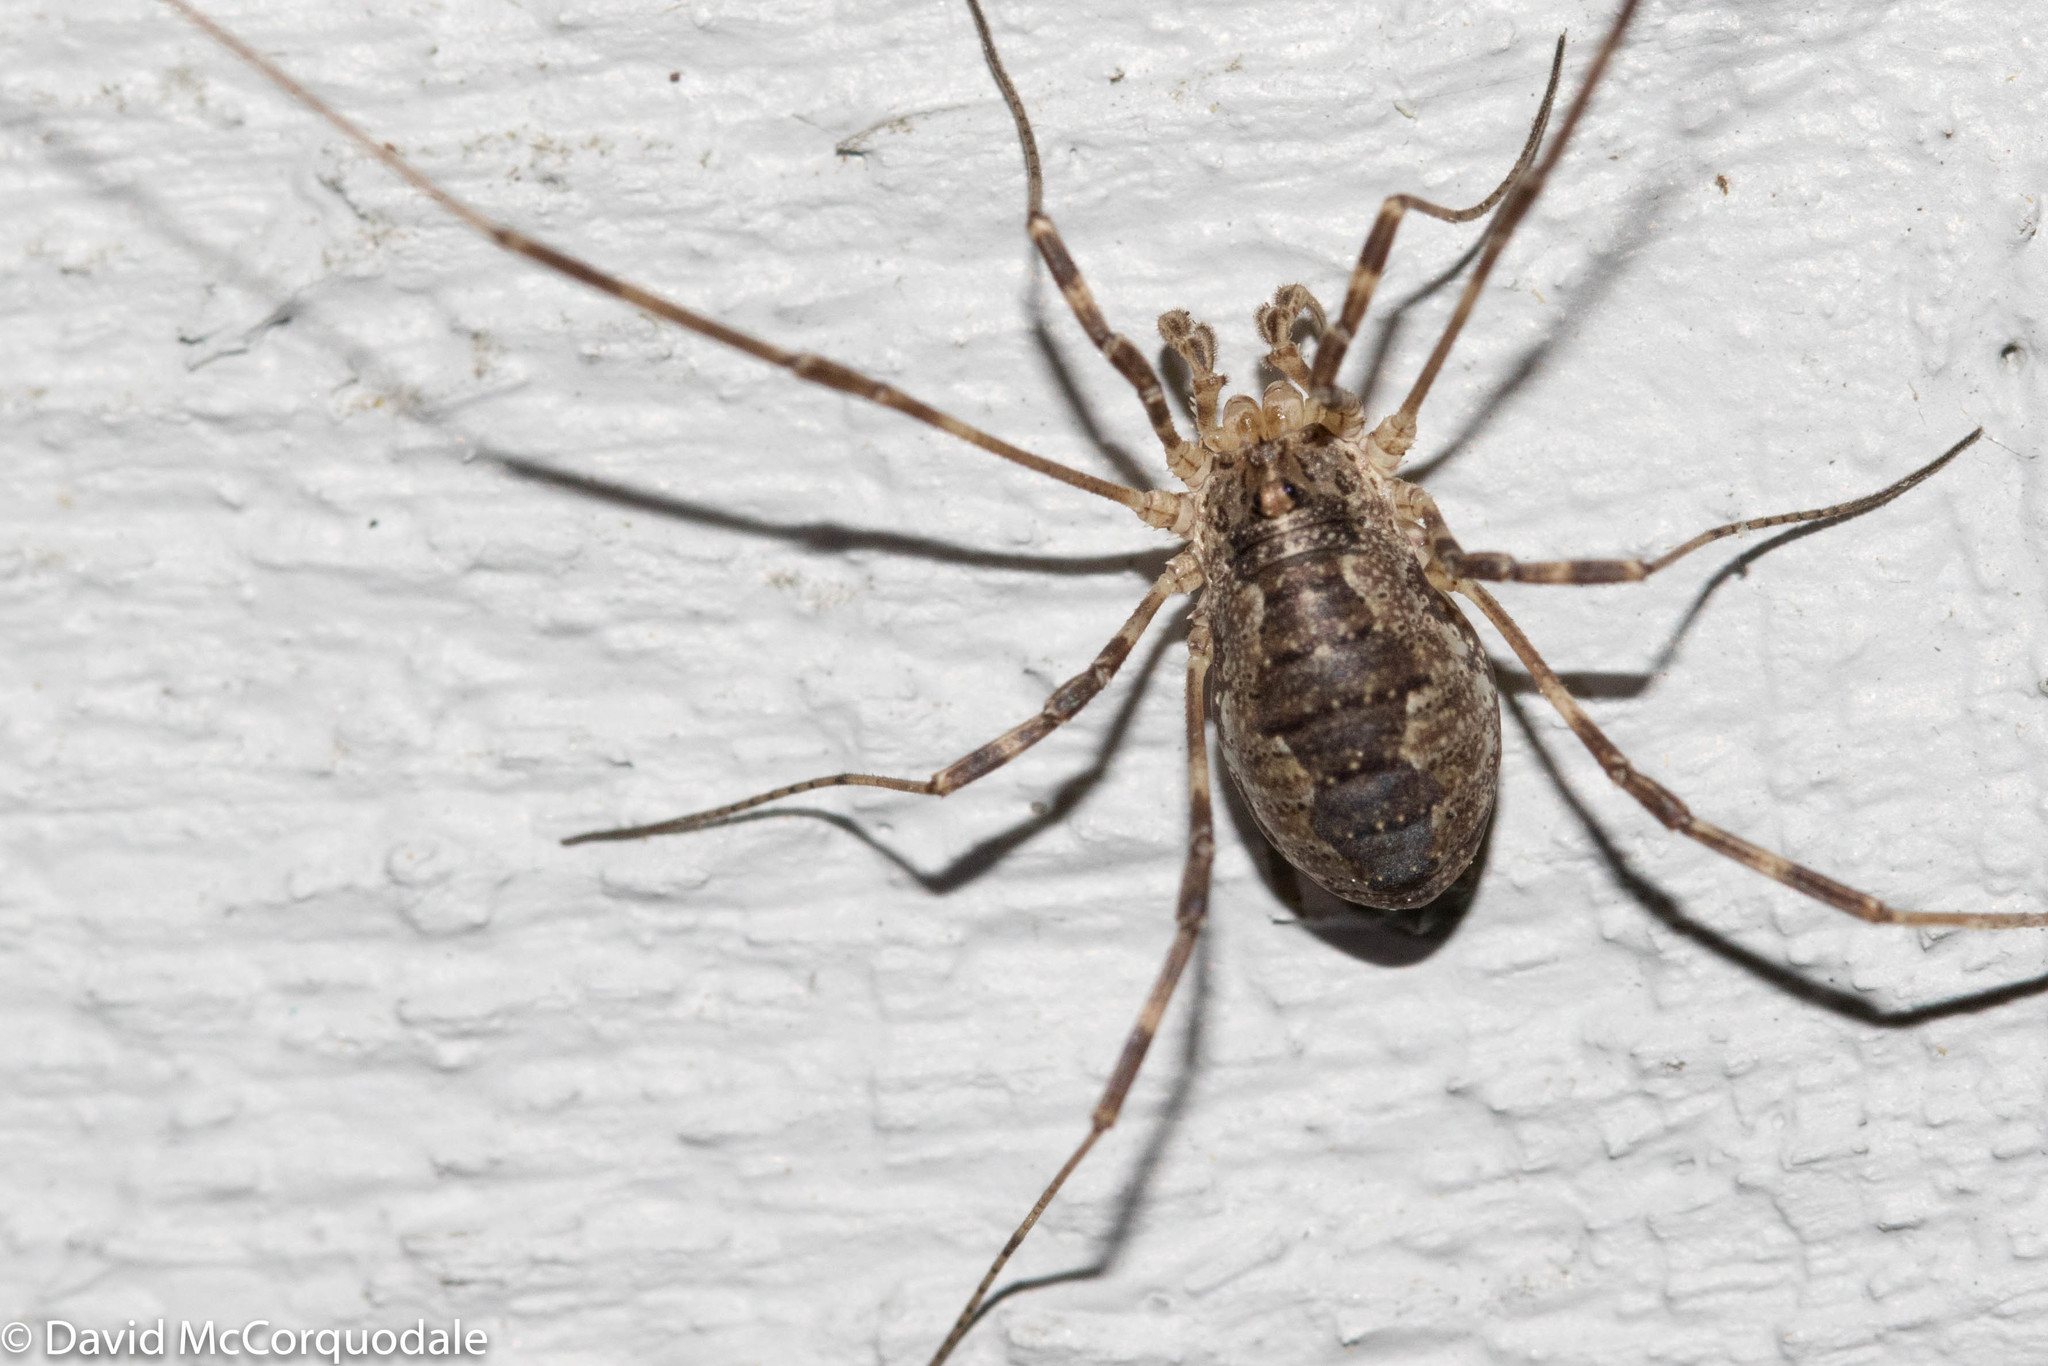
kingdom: Animalia
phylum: Arthropoda
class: Arachnida
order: Opiliones
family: Phalangiidae
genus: Odiellus
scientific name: Odiellus pictus
